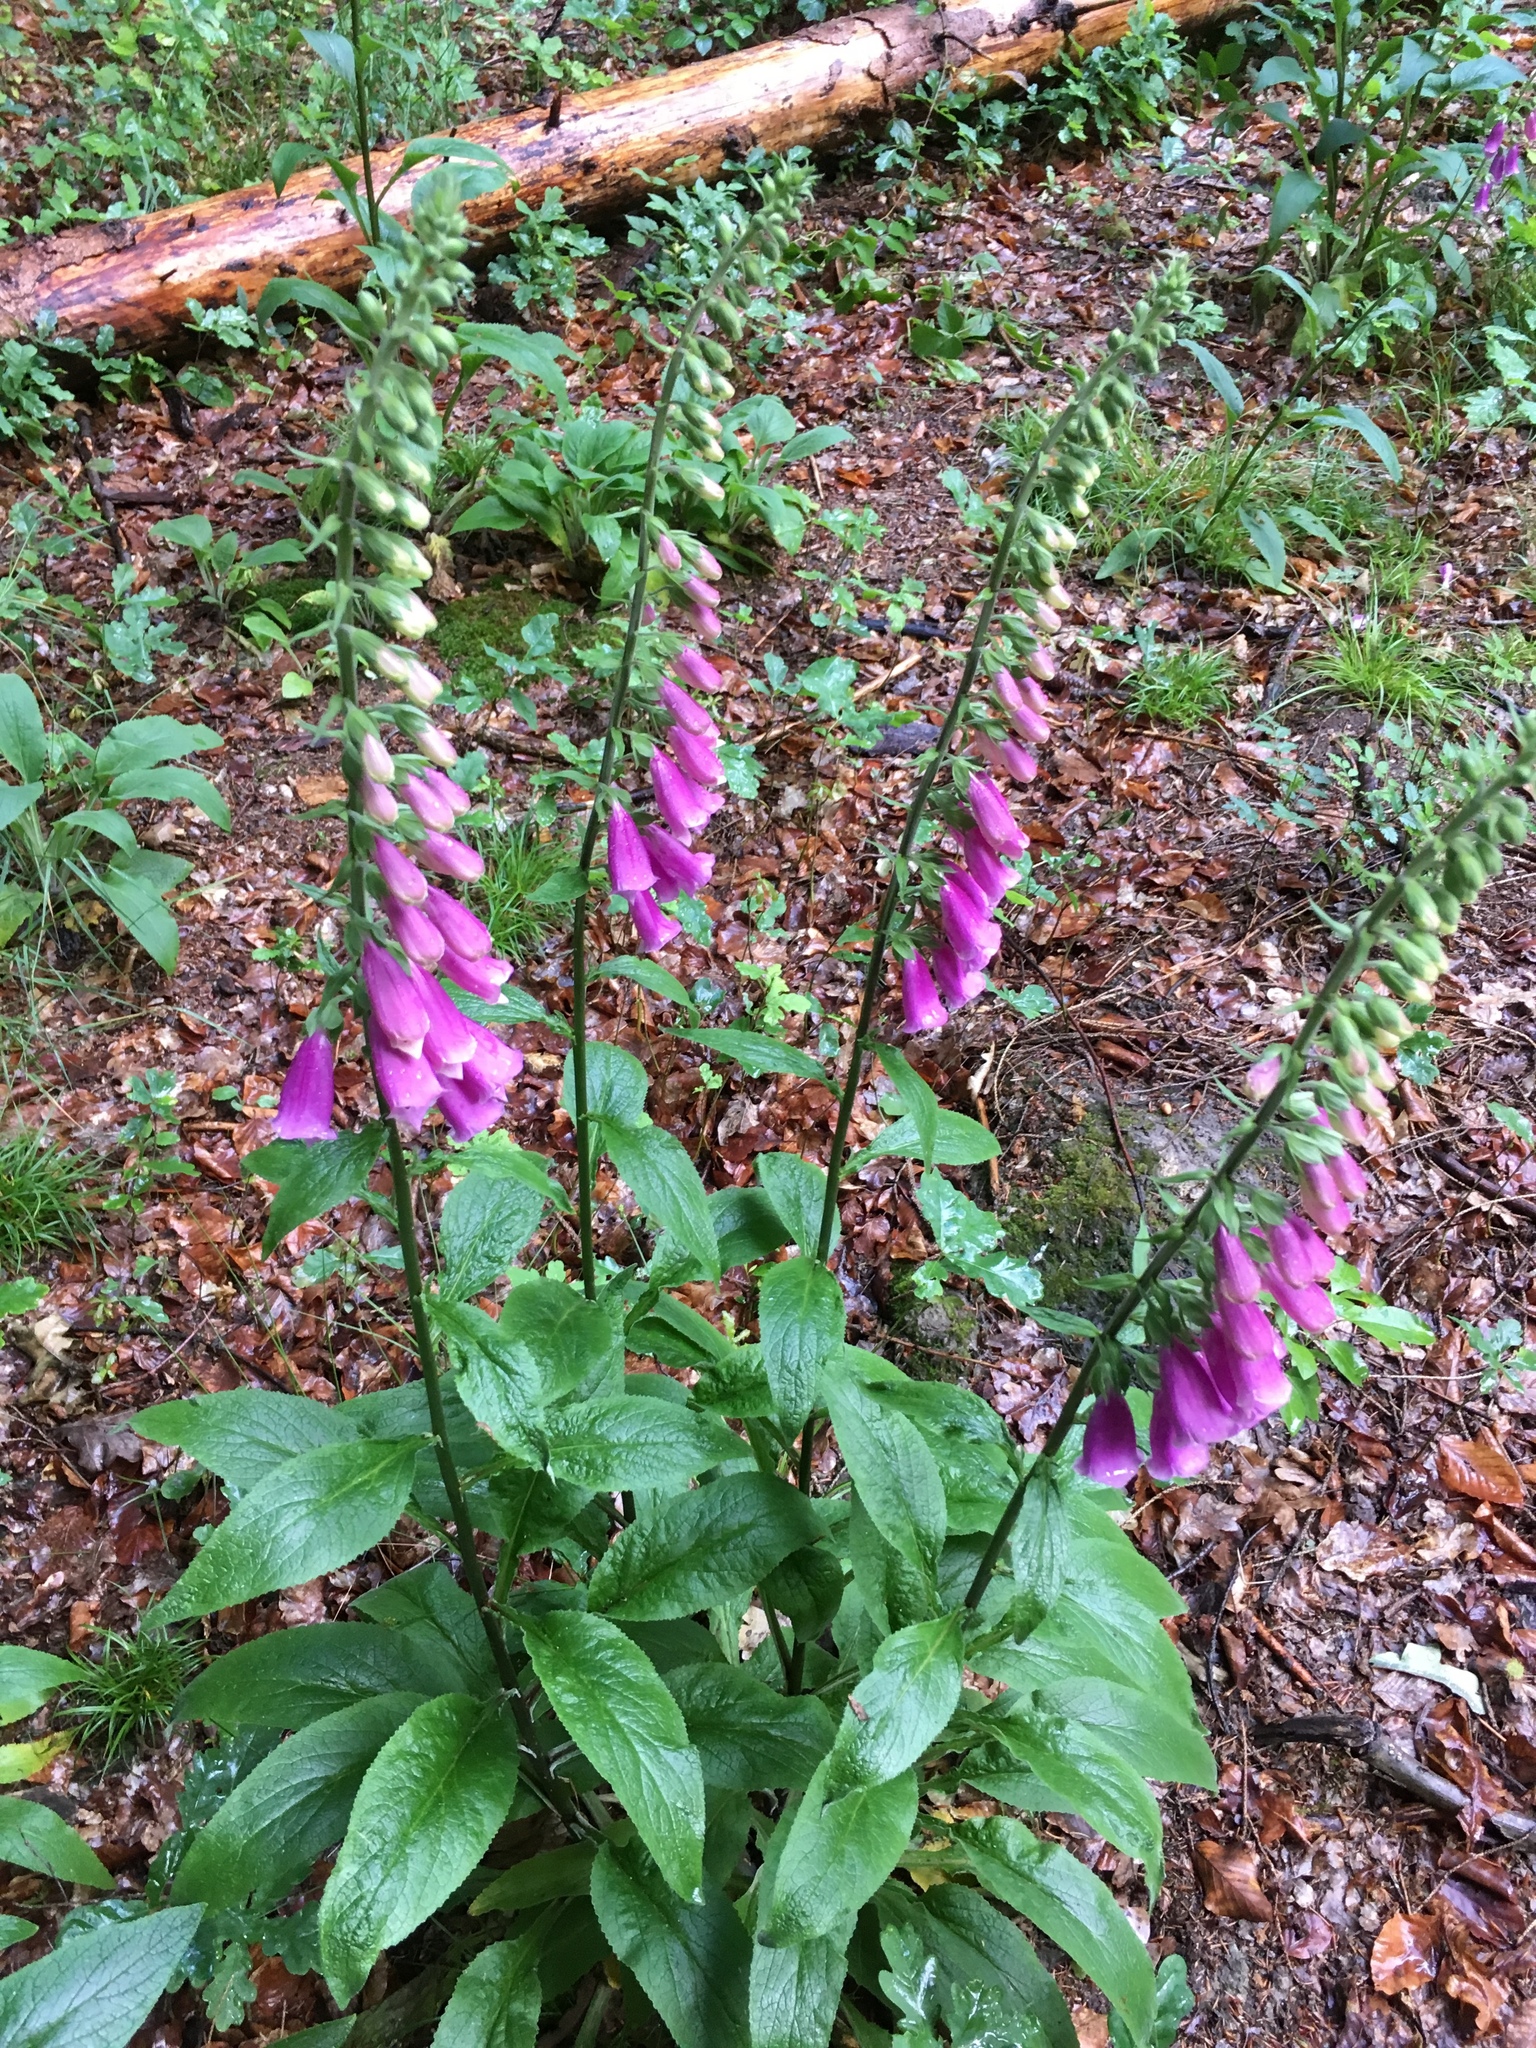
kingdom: Plantae
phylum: Tracheophyta
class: Magnoliopsida
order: Lamiales
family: Plantaginaceae
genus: Digitalis
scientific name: Digitalis purpurea
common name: Foxglove
